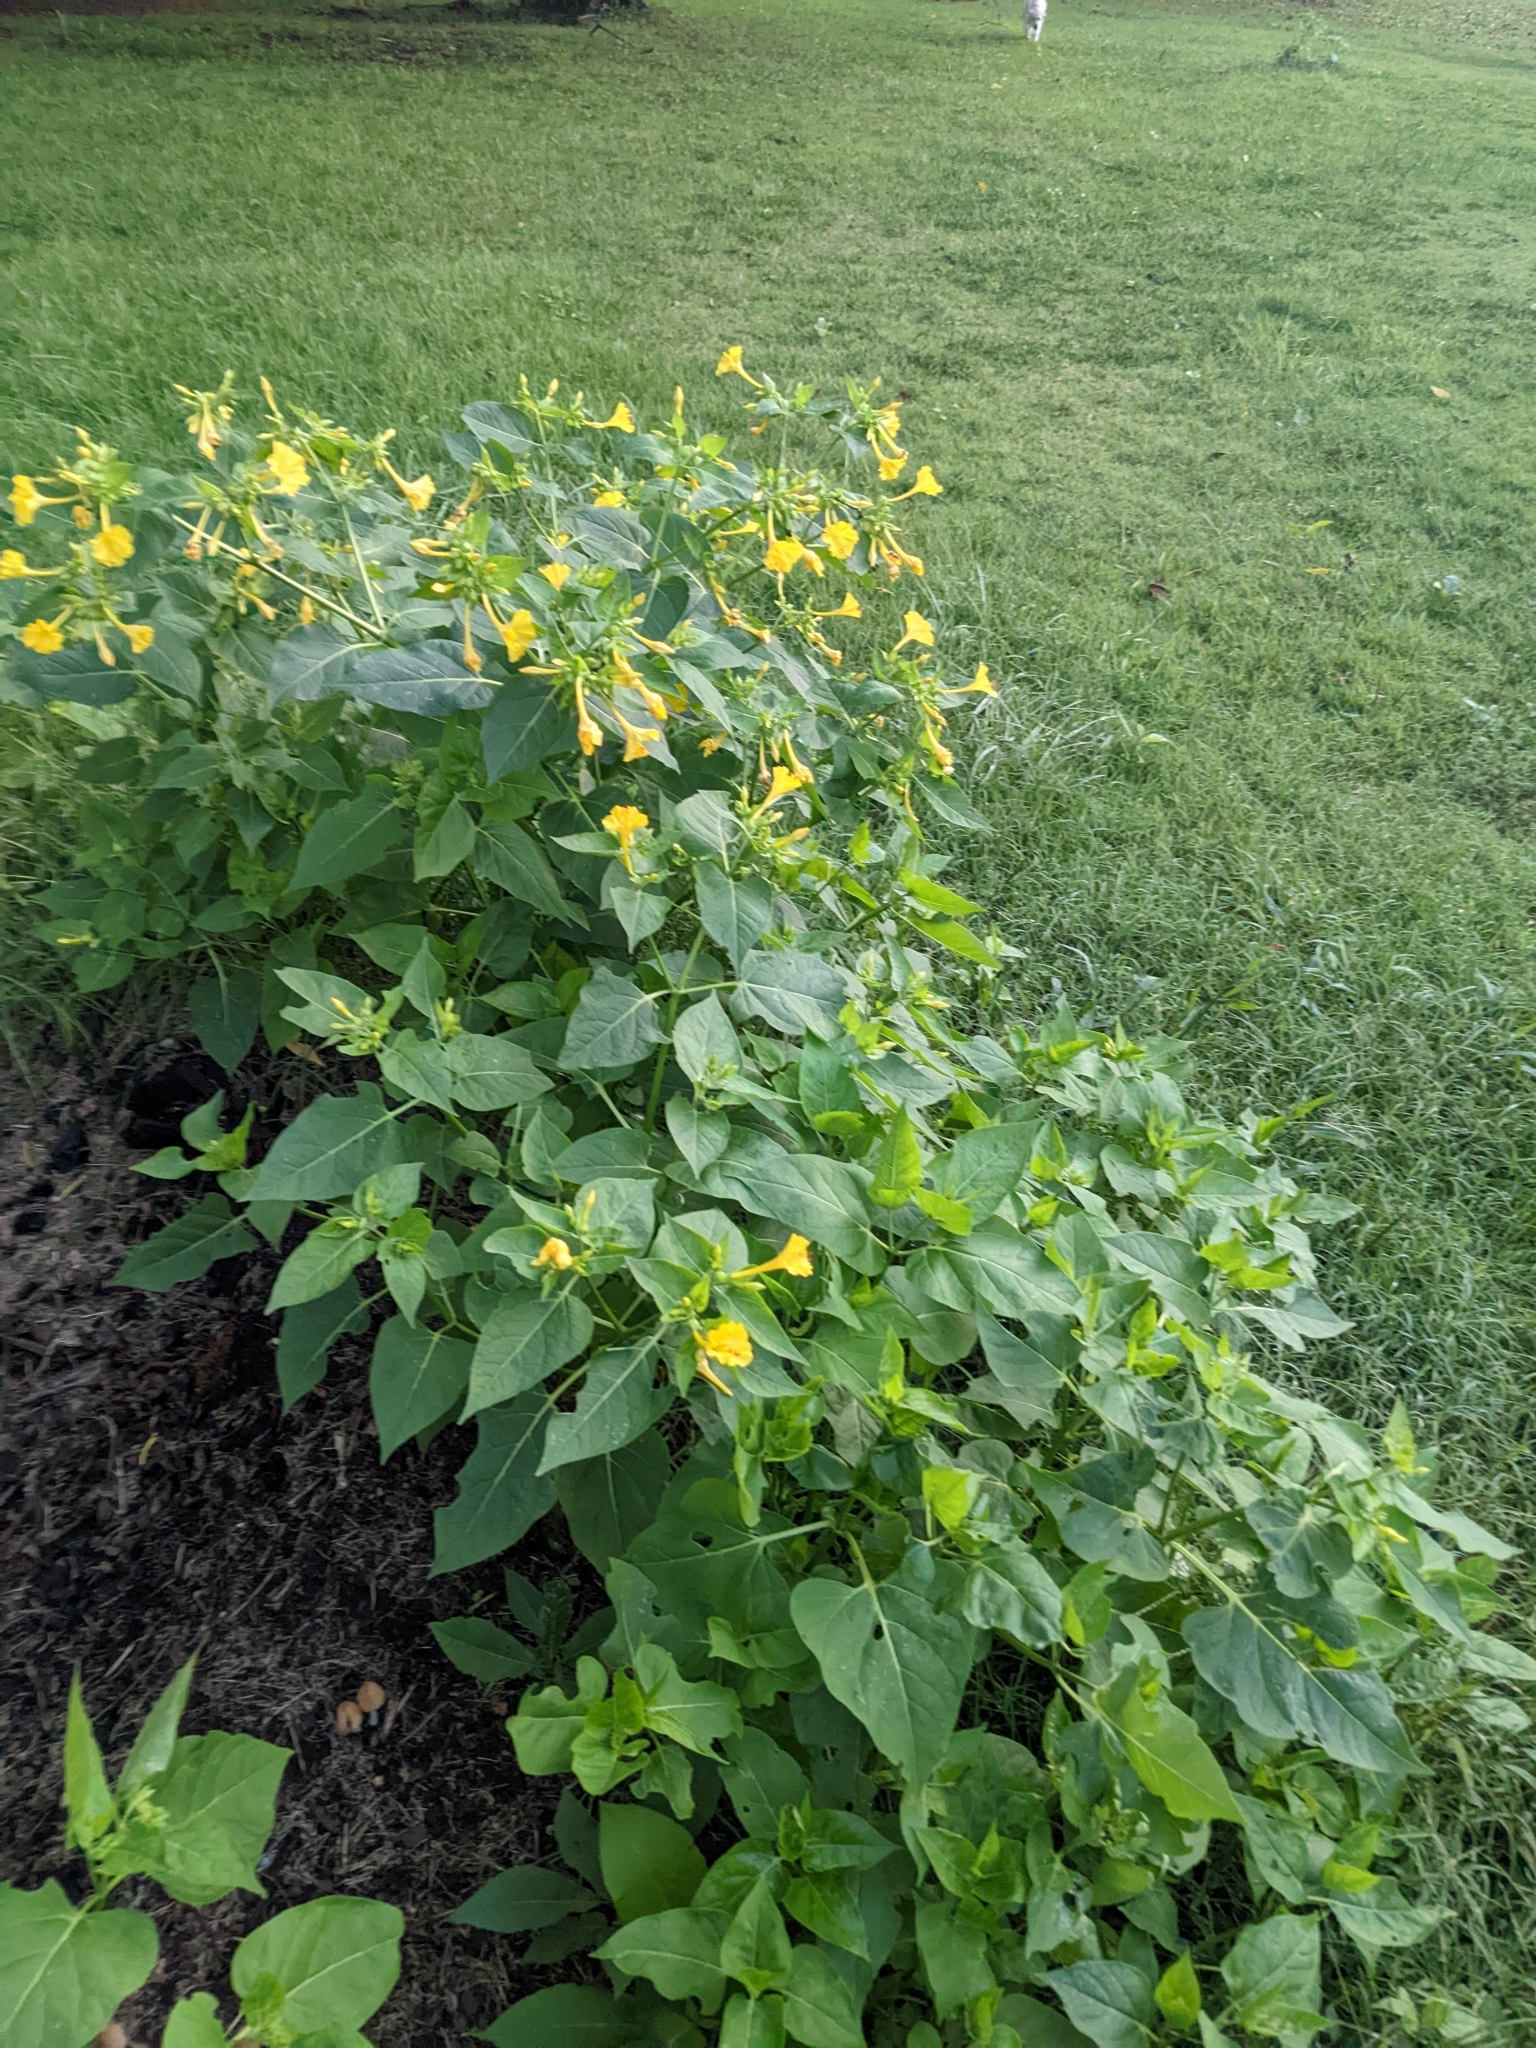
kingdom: Plantae
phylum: Tracheophyta
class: Magnoliopsida
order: Caryophyllales
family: Nyctaginaceae
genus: Mirabilis
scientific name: Mirabilis jalapa
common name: Marvel-of-peru
